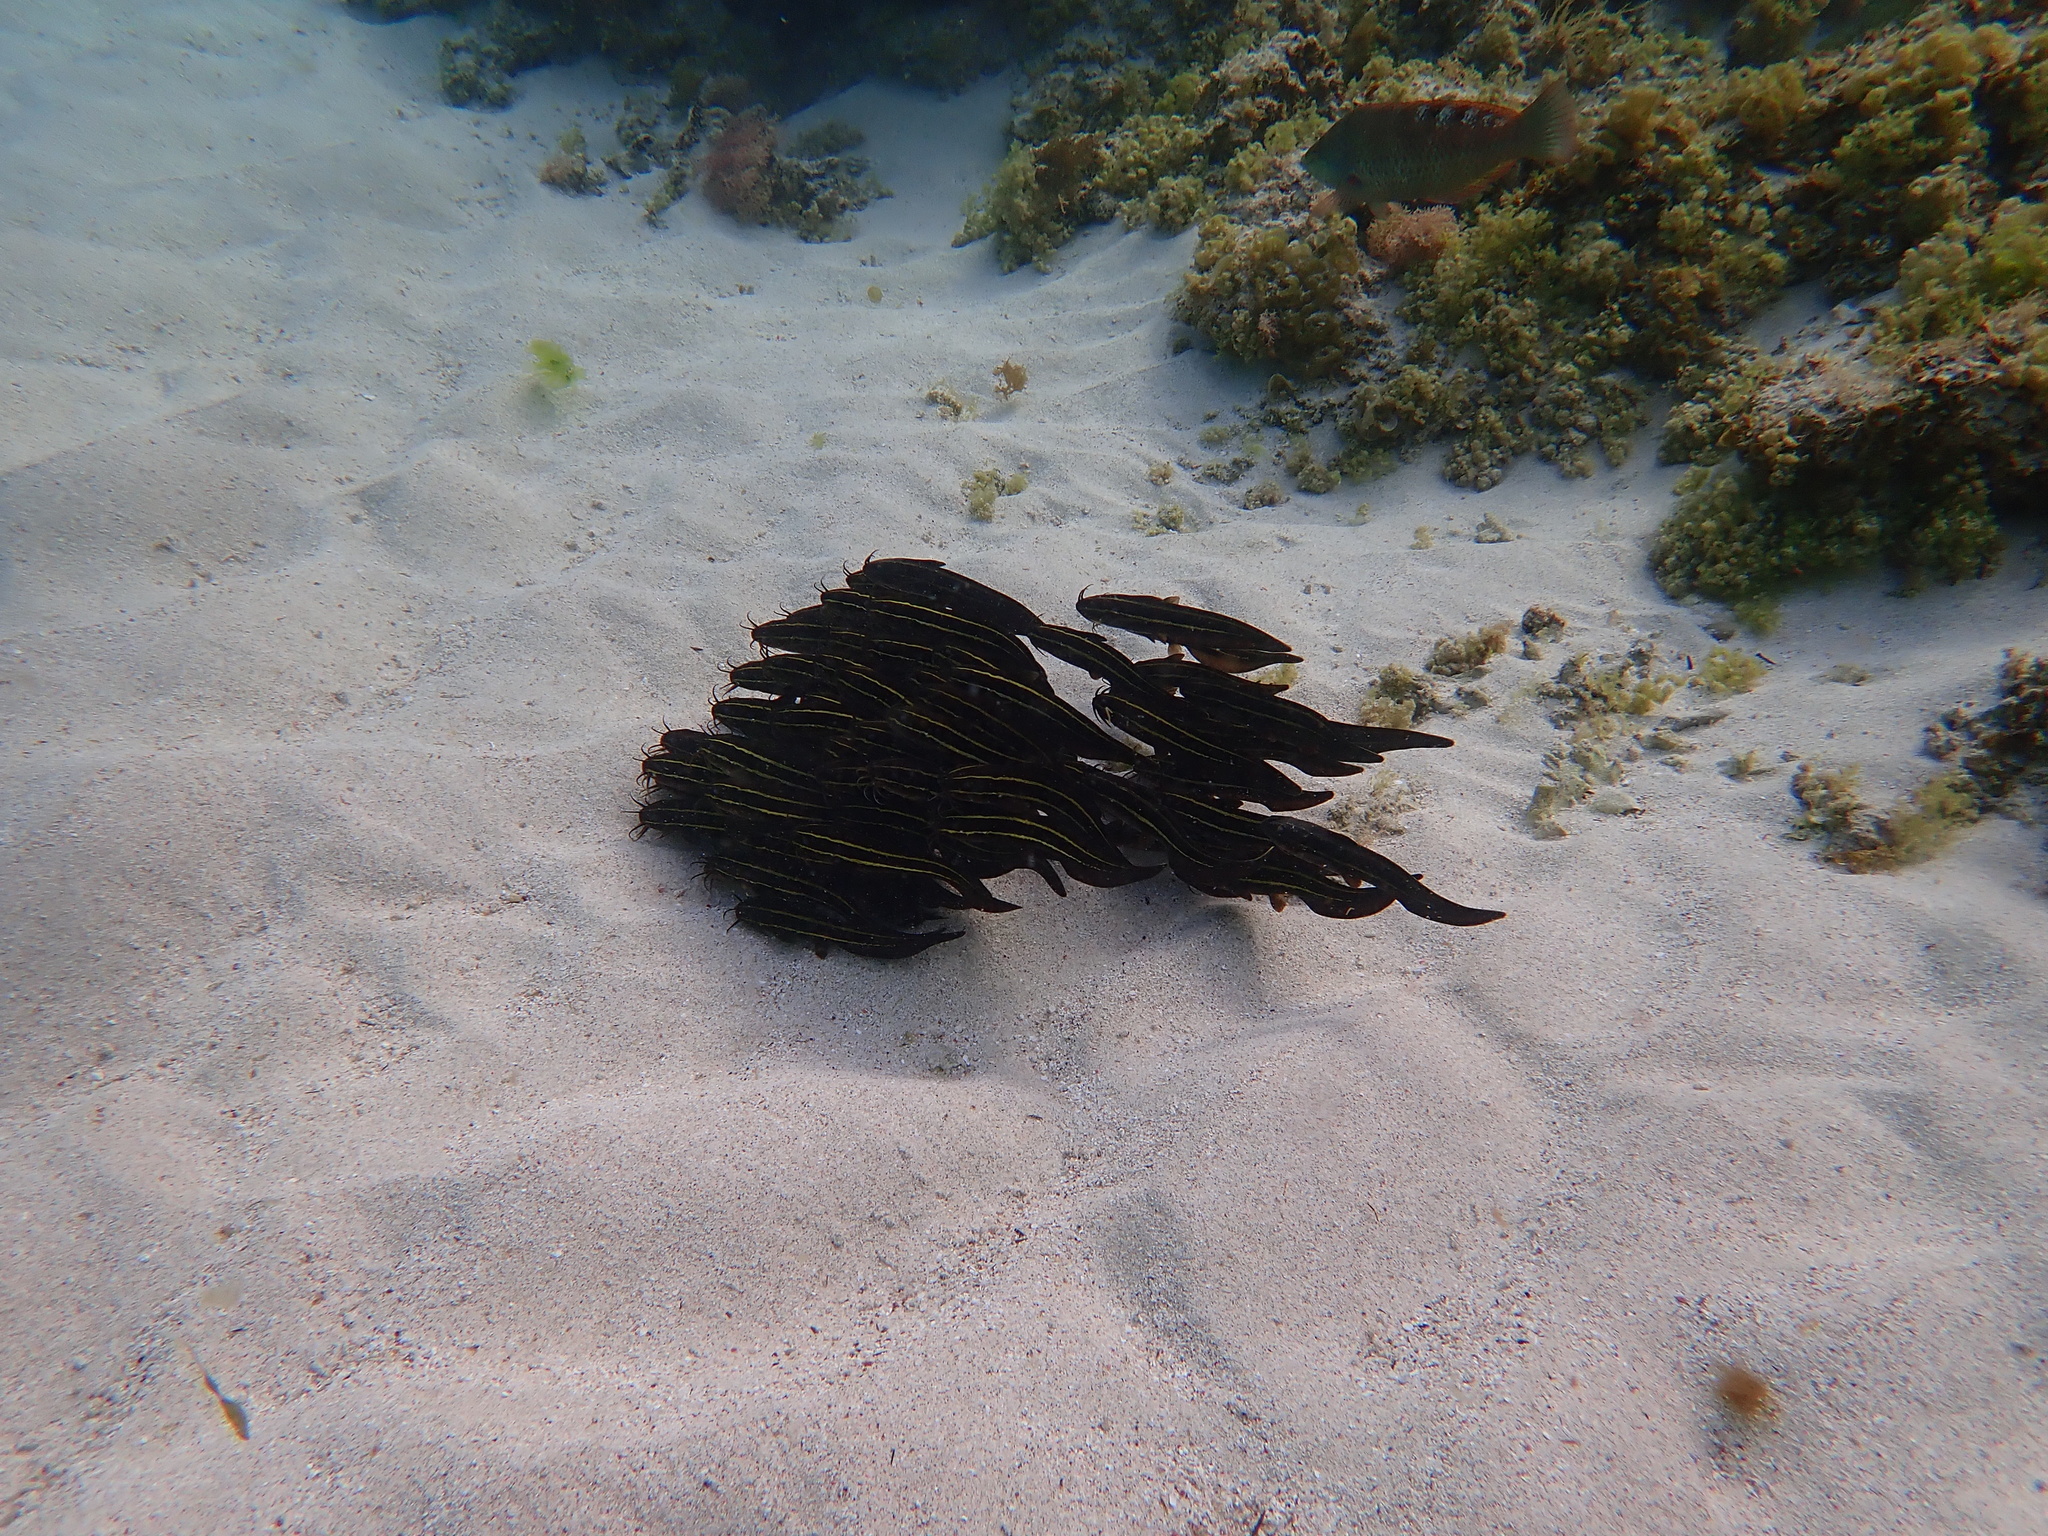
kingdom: Animalia
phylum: Chordata
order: Siluriformes
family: Plotosidae
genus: Plotosus
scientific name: Plotosus lineatus
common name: Striped eel catfish
